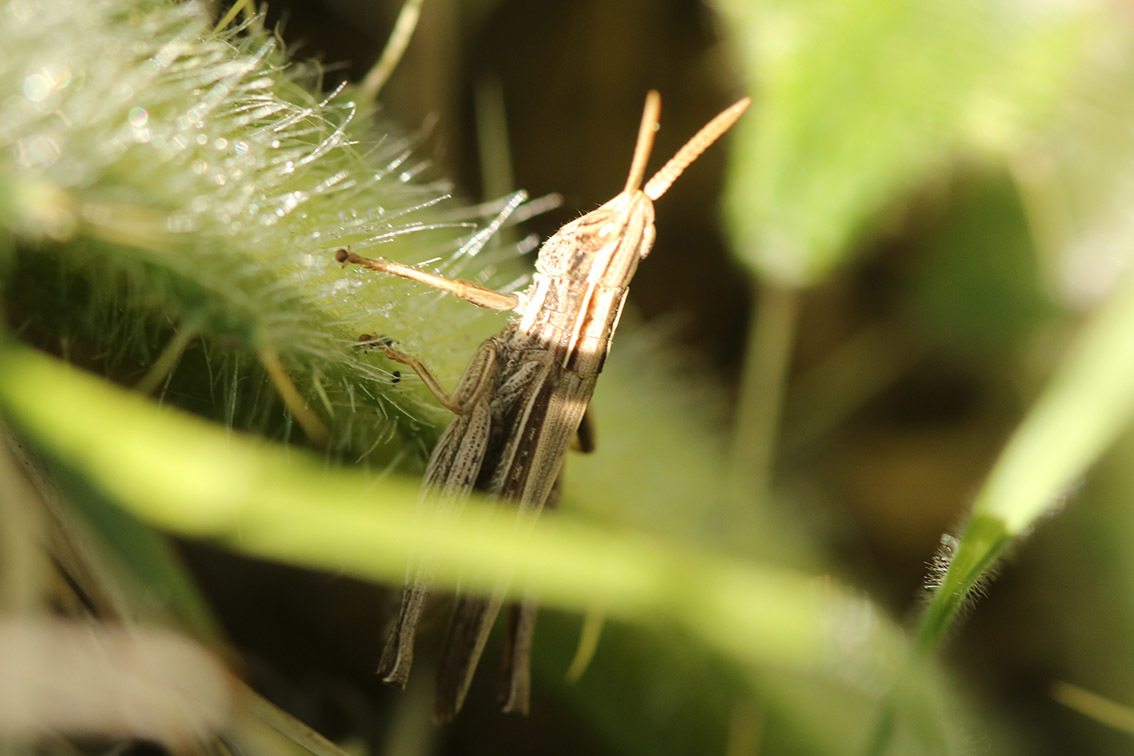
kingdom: Animalia
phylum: Arthropoda
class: Insecta
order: Orthoptera
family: Acrididae
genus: Laplatacris
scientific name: Laplatacris dispar
